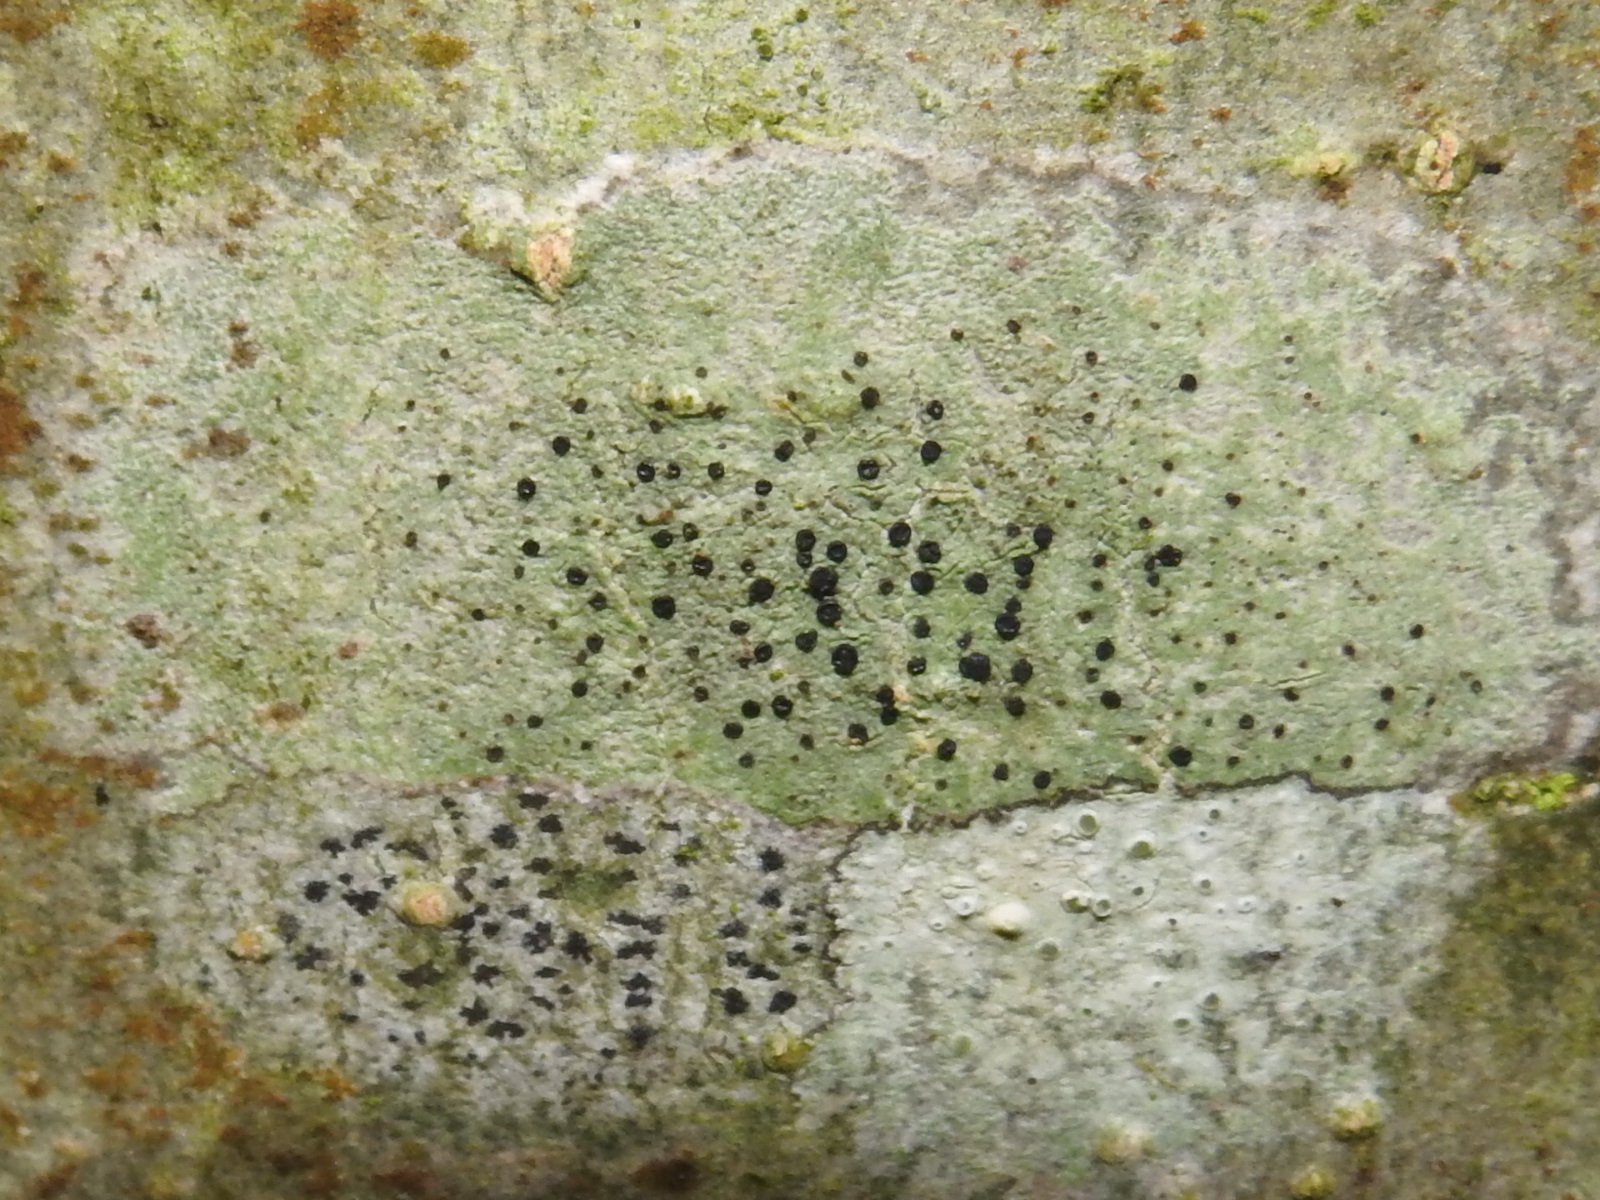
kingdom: Fungi
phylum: Ascomycota
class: Lecanoromycetes
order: Lecanorales
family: Lecanoraceae
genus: Lecidella
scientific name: Lecidella elaeochroma
